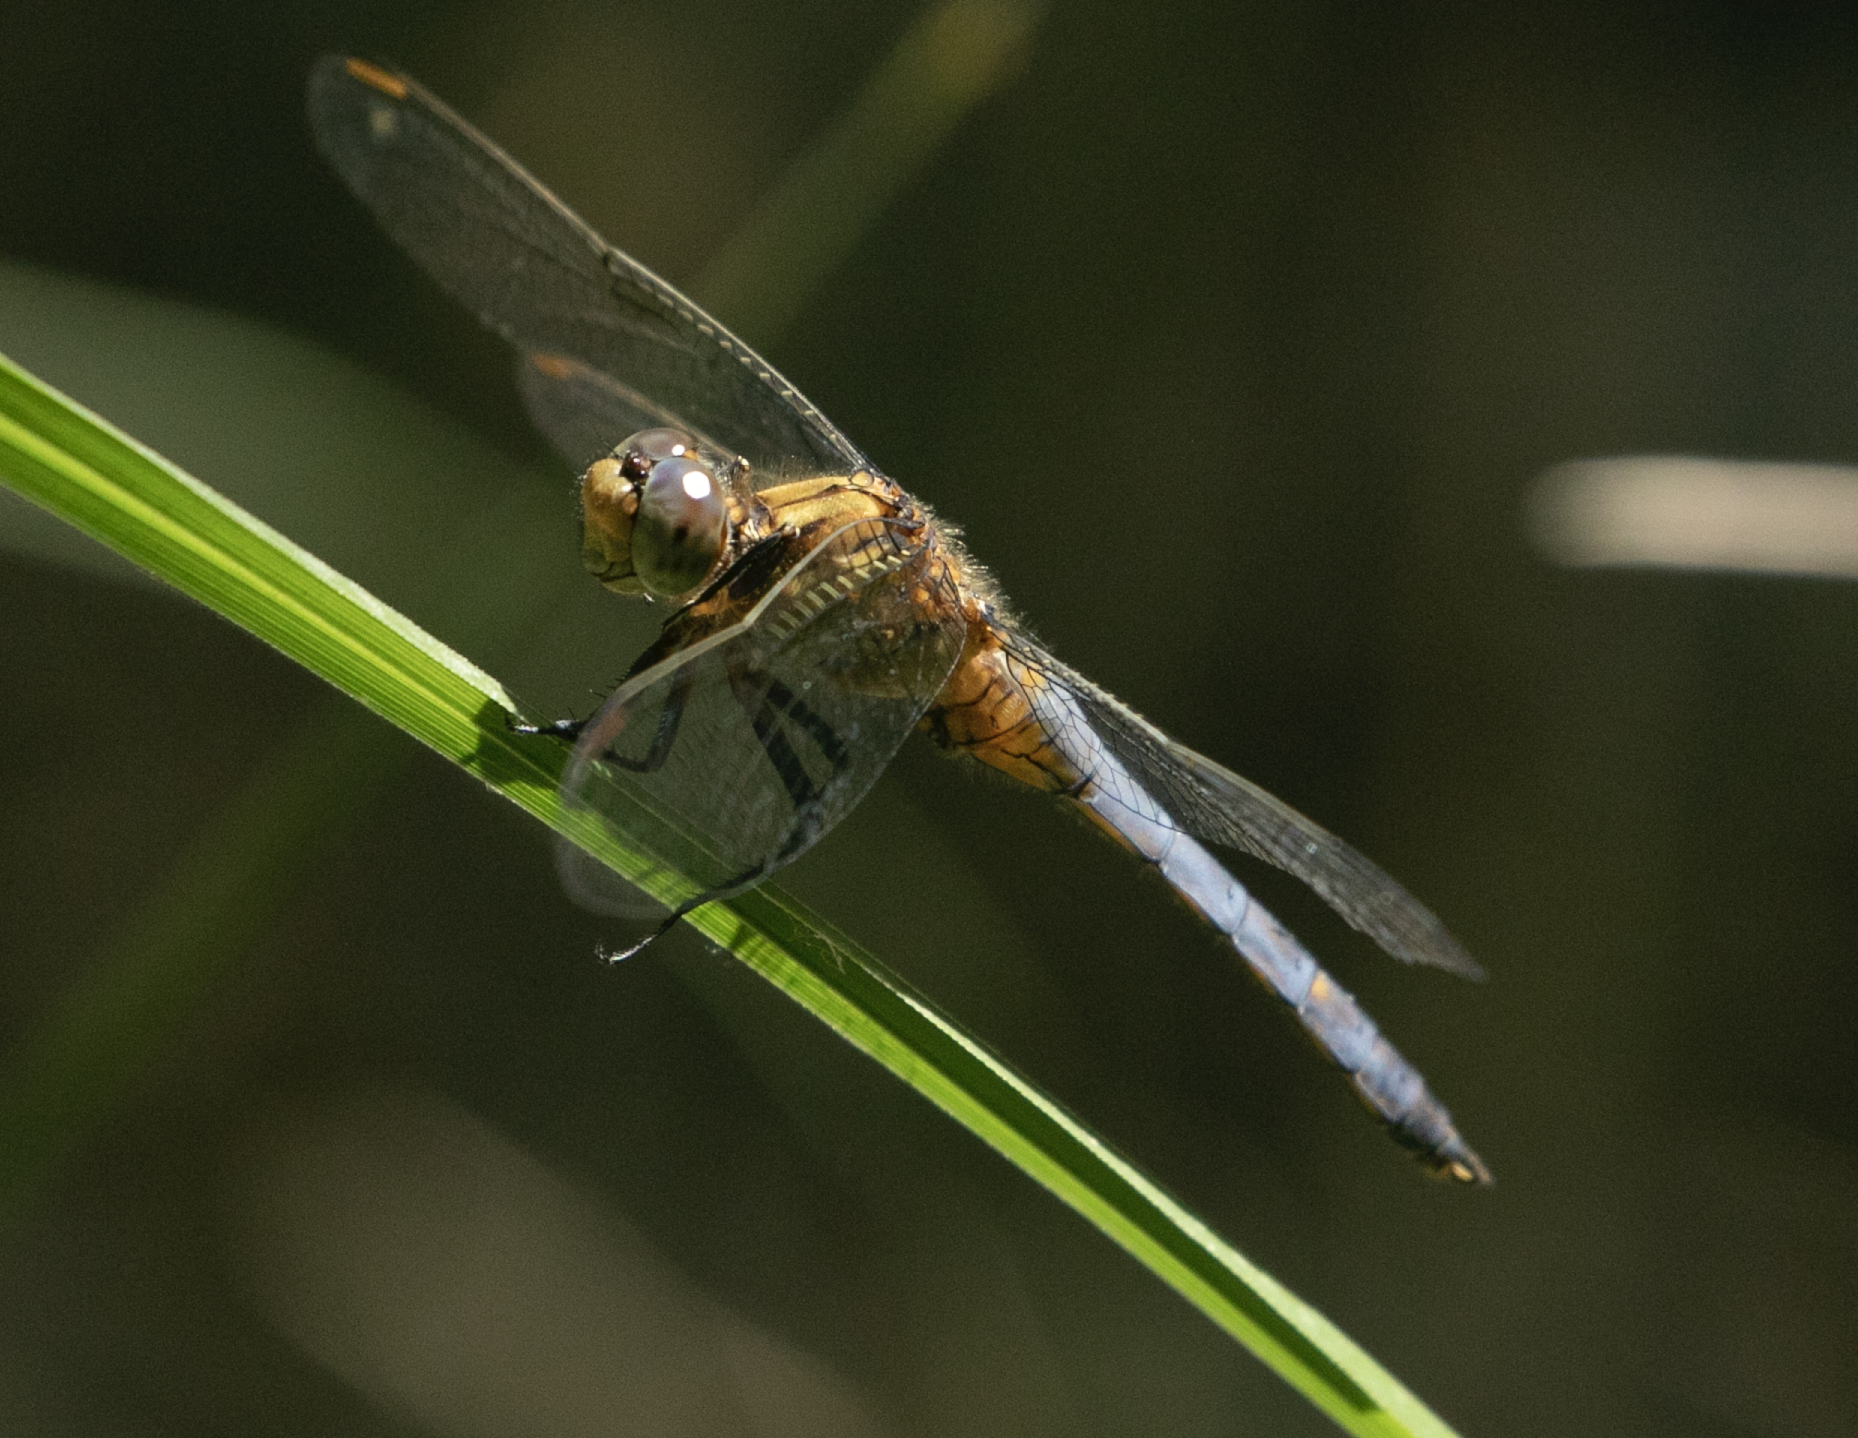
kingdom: Animalia
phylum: Arthropoda
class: Insecta
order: Odonata
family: Libellulidae
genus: Orthetrum
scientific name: Orthetrum coerulescens
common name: Keeled skimmer
